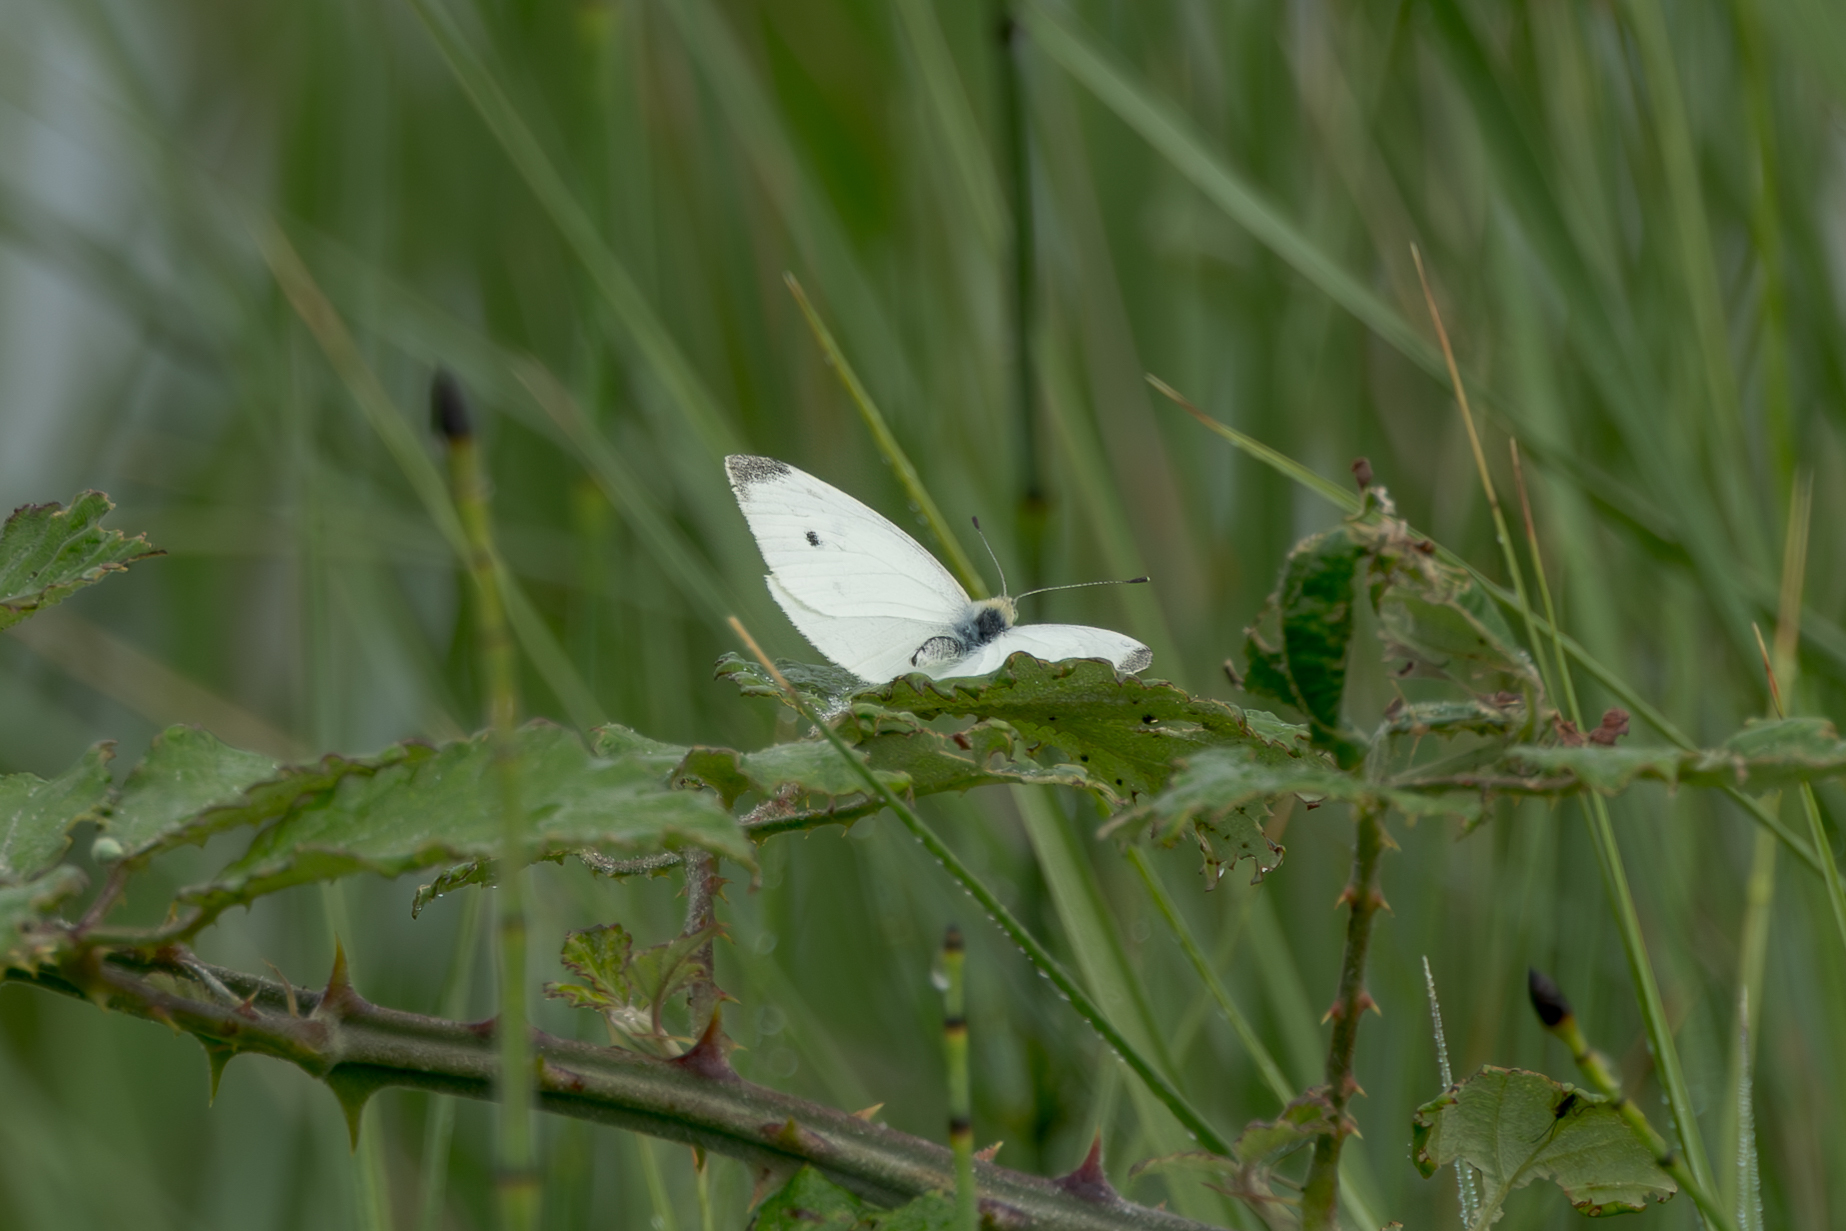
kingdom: Animalia
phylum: Arthropoda
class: Insecta
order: Lepidoptera
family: Pieridae
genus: Pieris
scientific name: Pieris rapae
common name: Small white
